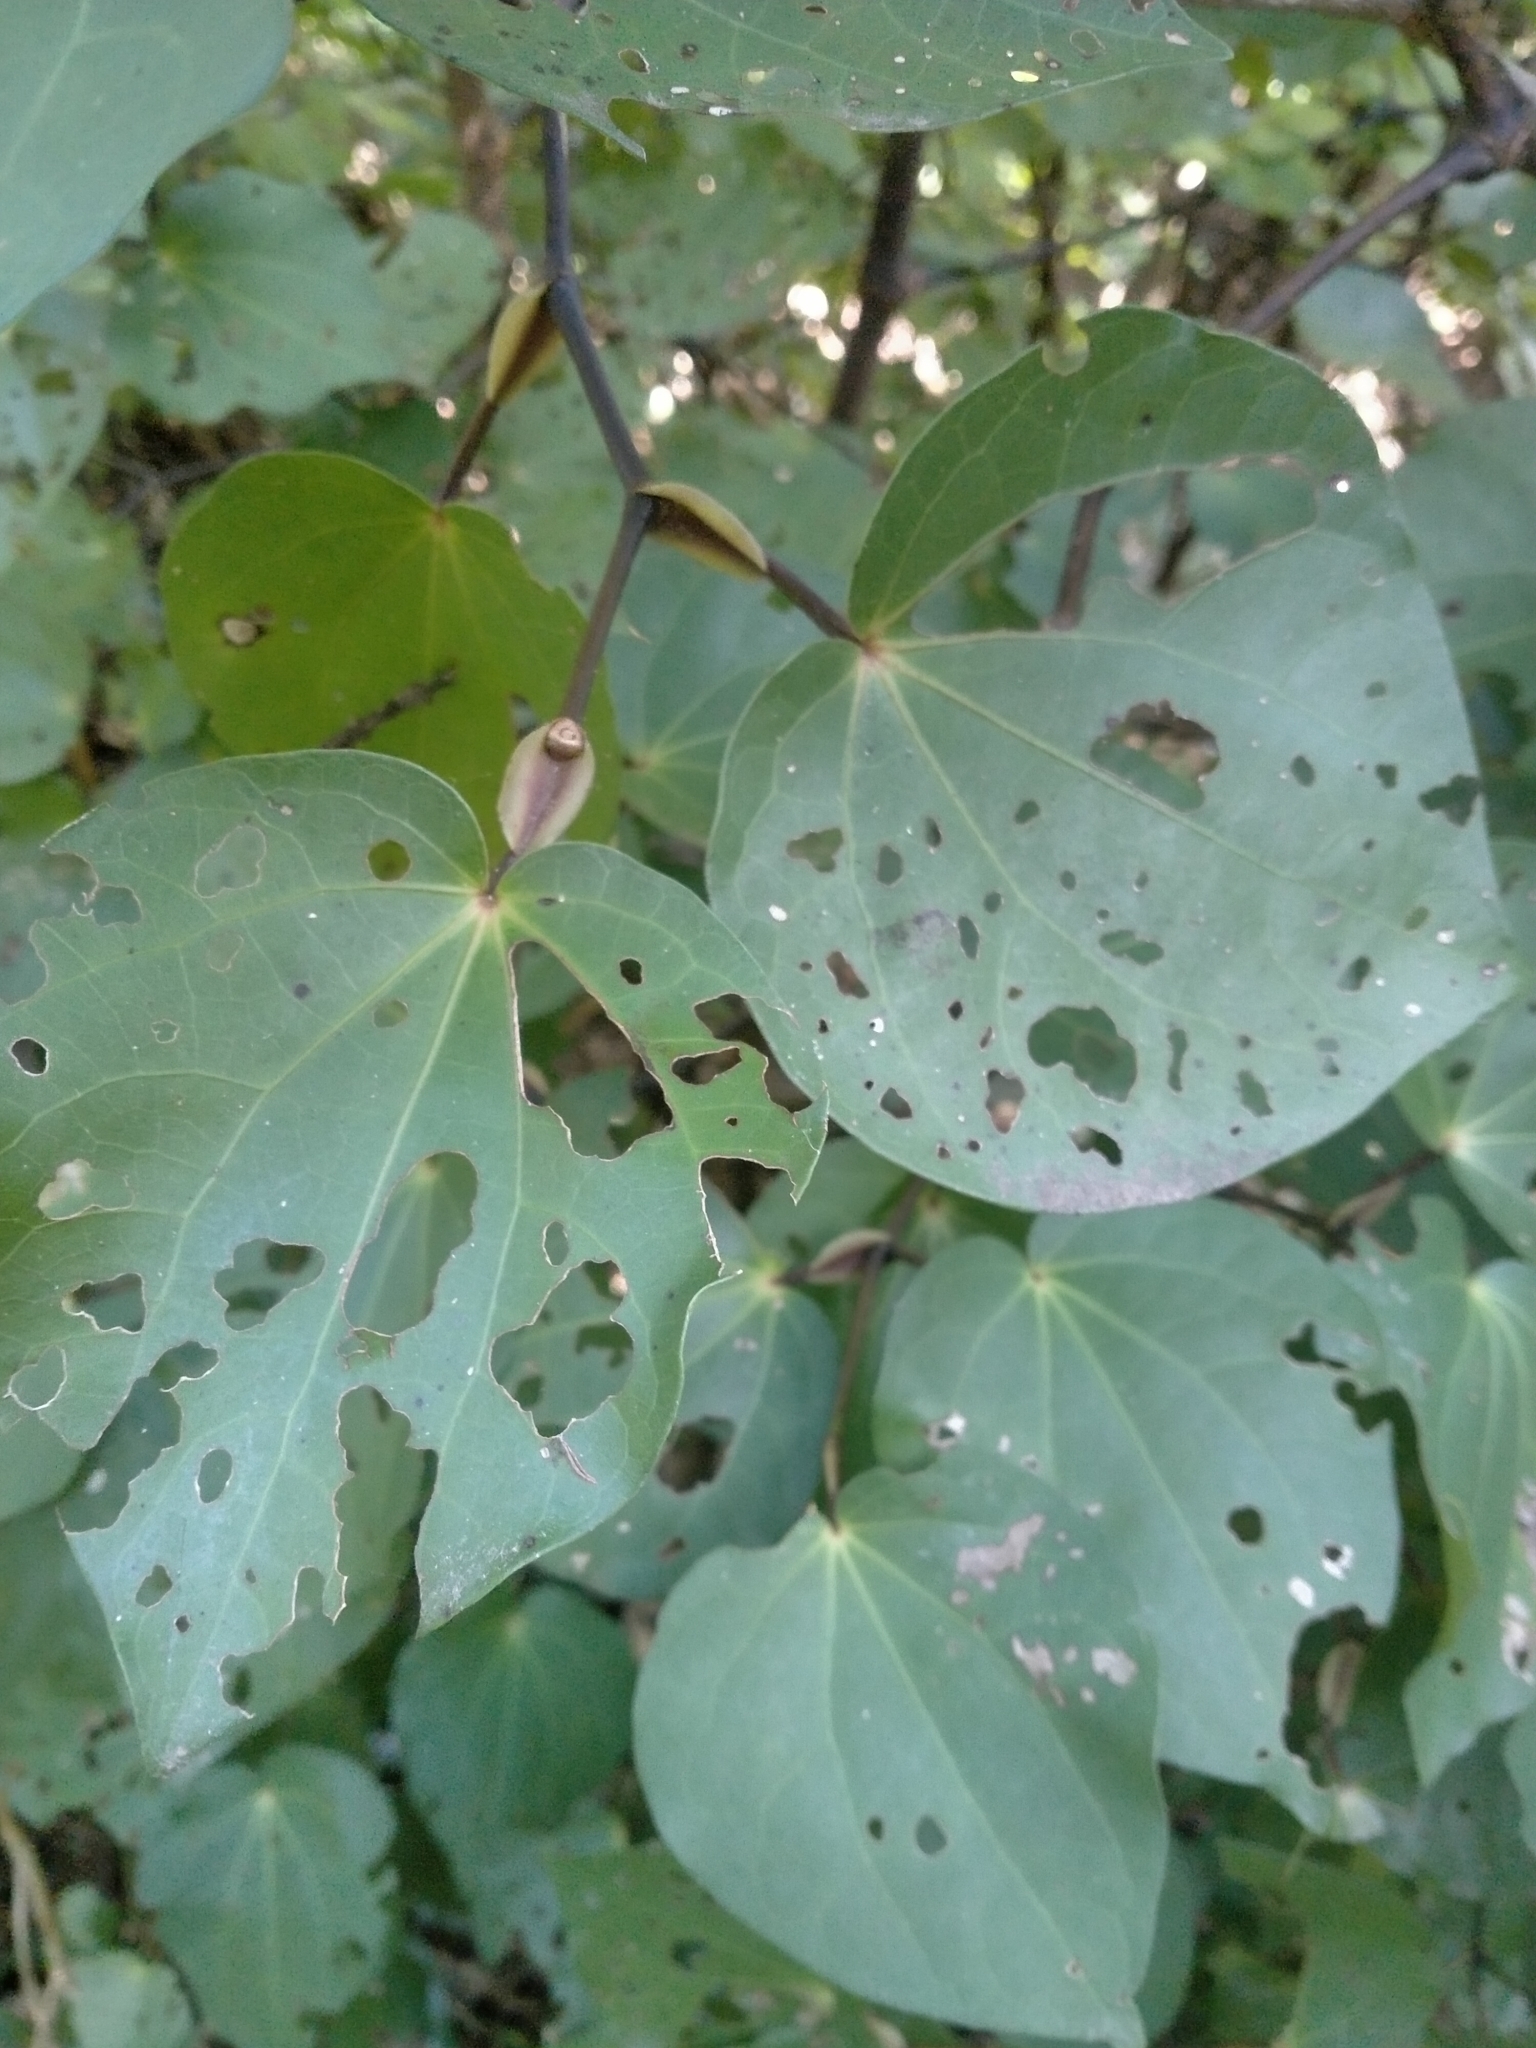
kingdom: Plantae
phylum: Tracheophyta
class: Magnoliopsida
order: Piperales
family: Piperaceae
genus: Macropiper
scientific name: Macropiper excelsum
